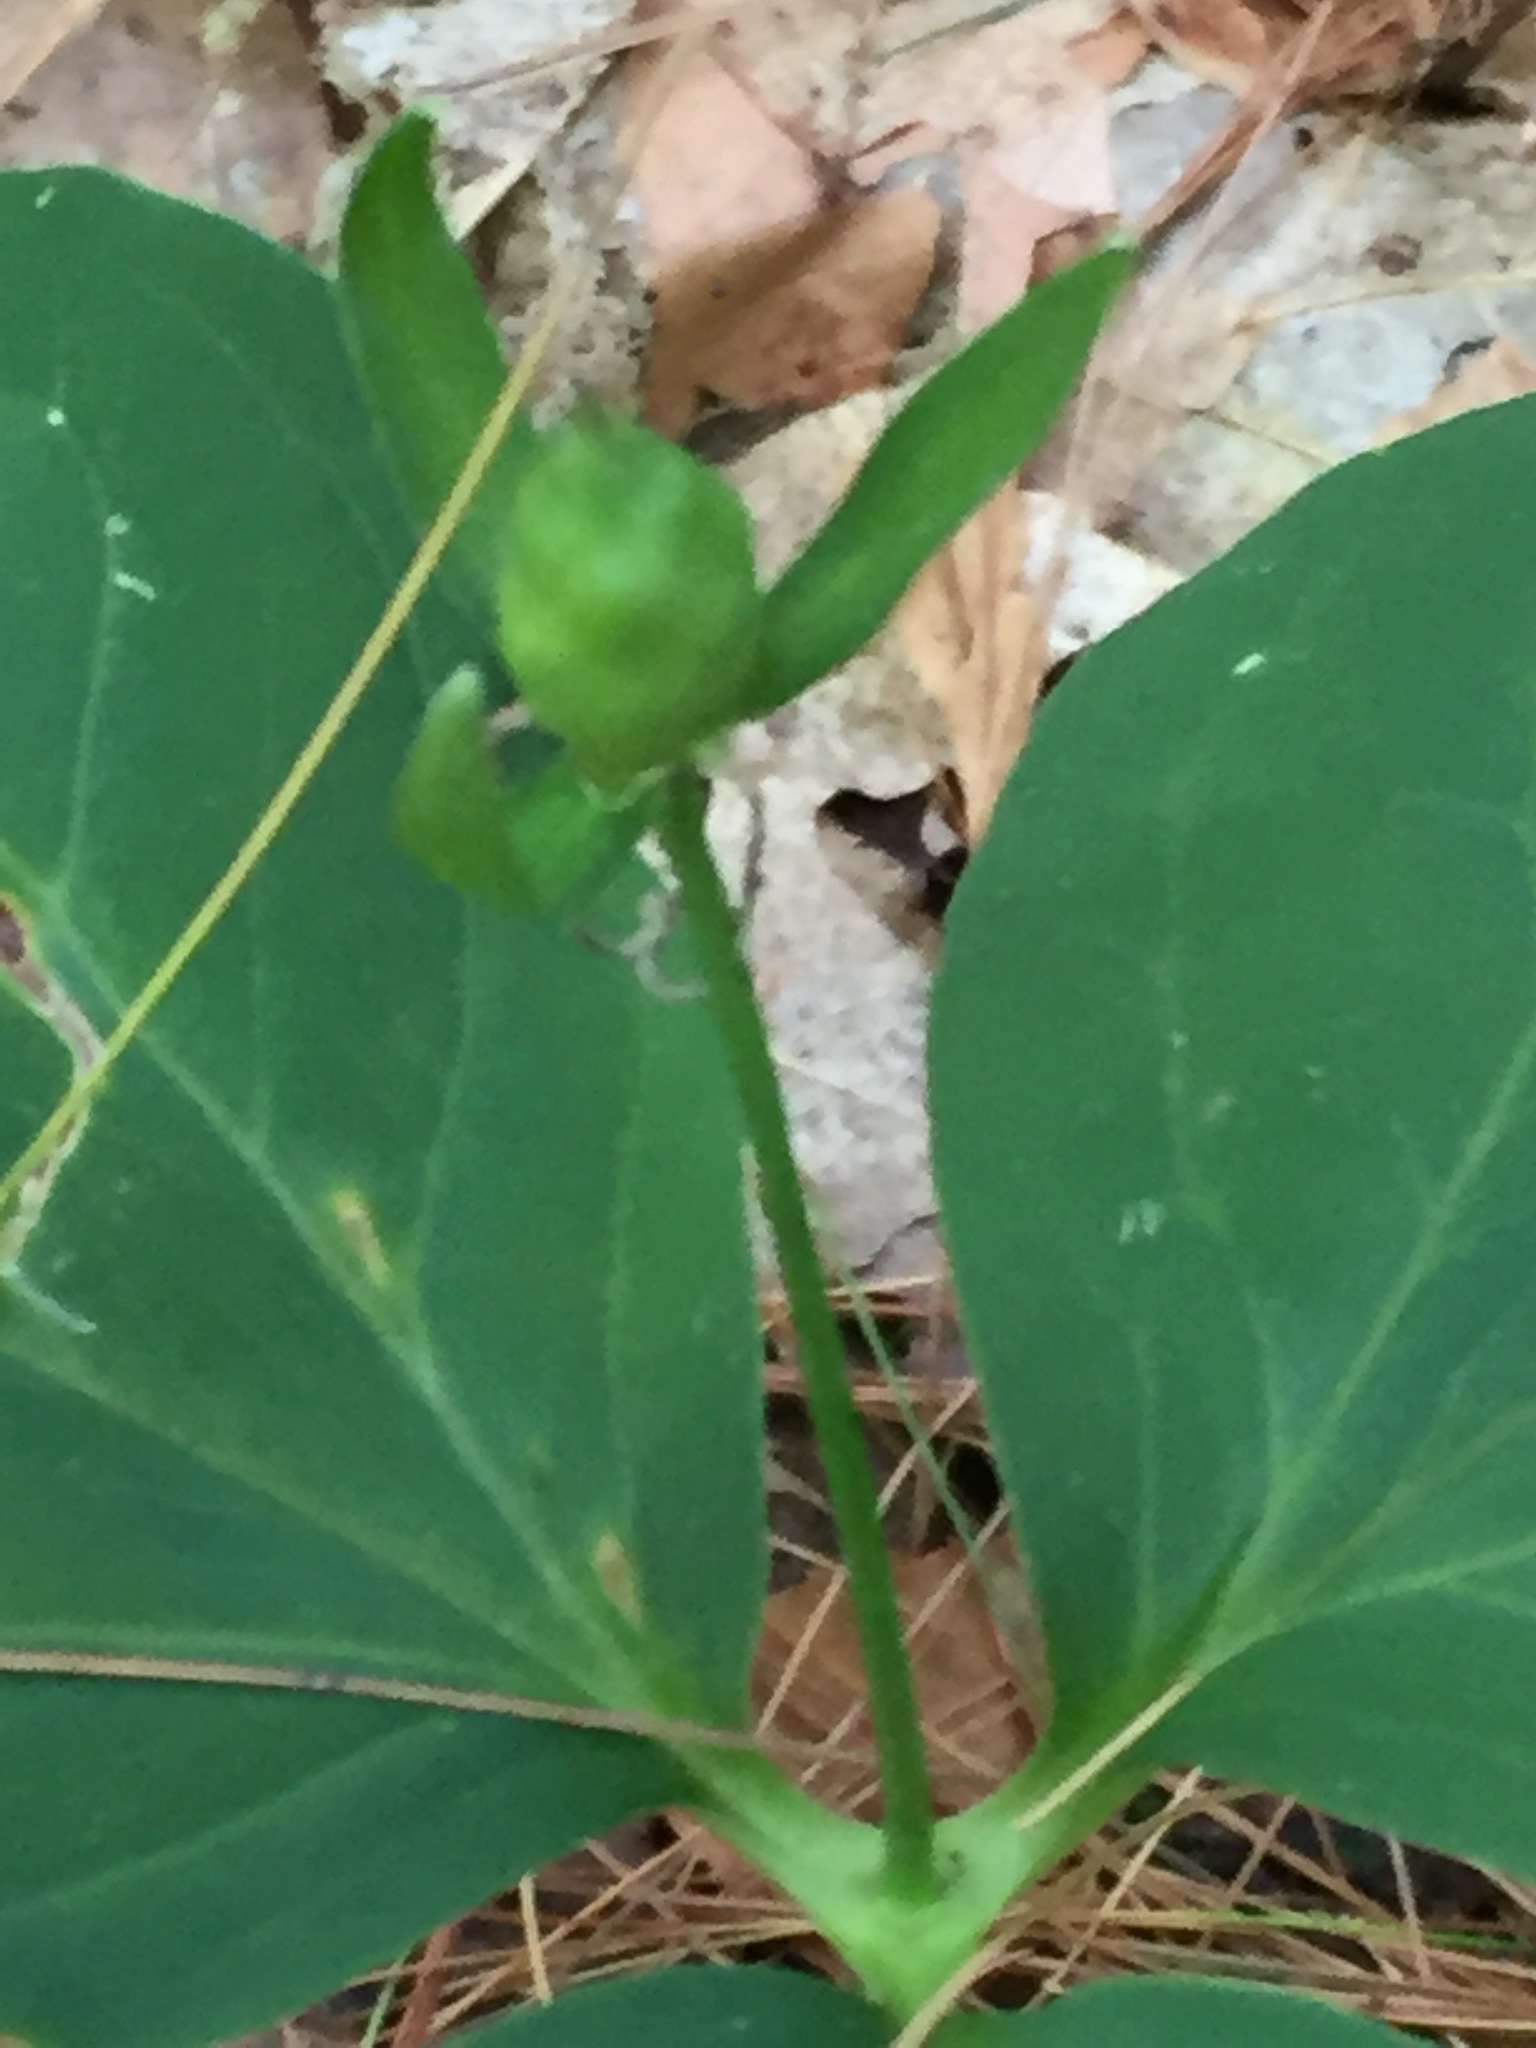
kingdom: Plantae
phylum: Tracheophyta
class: Liliopsida
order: Liliales
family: Melanthiaceae
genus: Trillium
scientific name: Trillium undulatum
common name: Paint trillium
